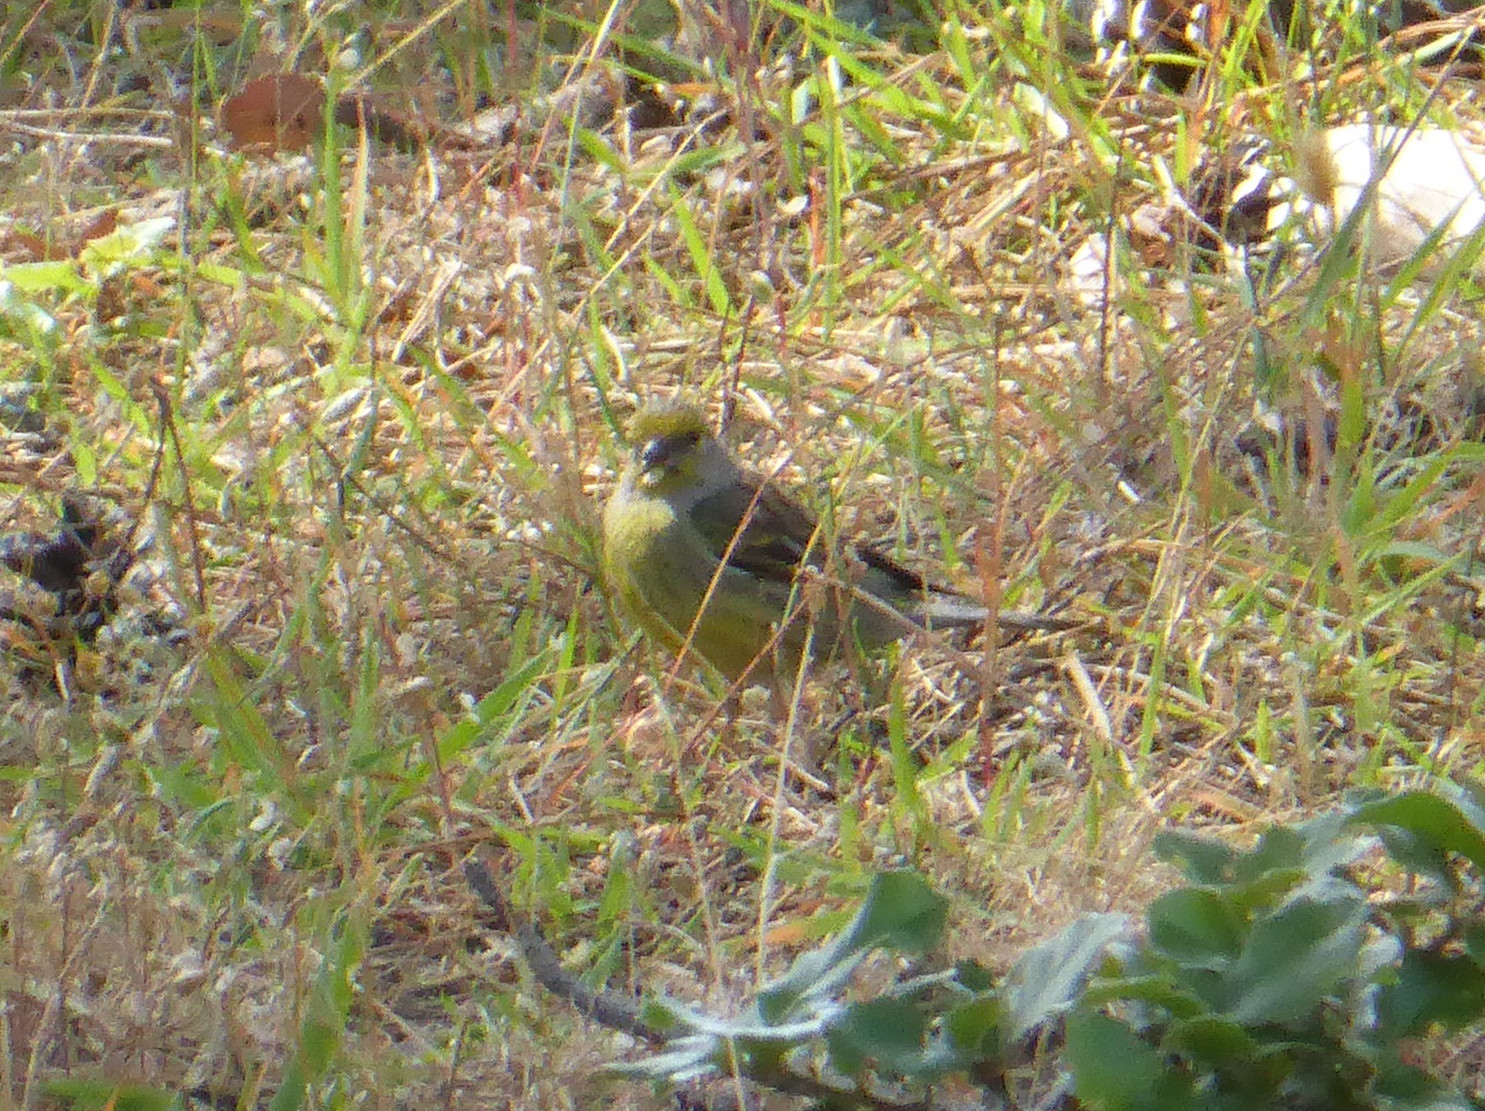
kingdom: Animalia
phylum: Chordata
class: Aves
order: Passeriformes
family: Fringillidae
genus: Carduelis
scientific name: Carduelis corsicana
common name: Corsican finch
